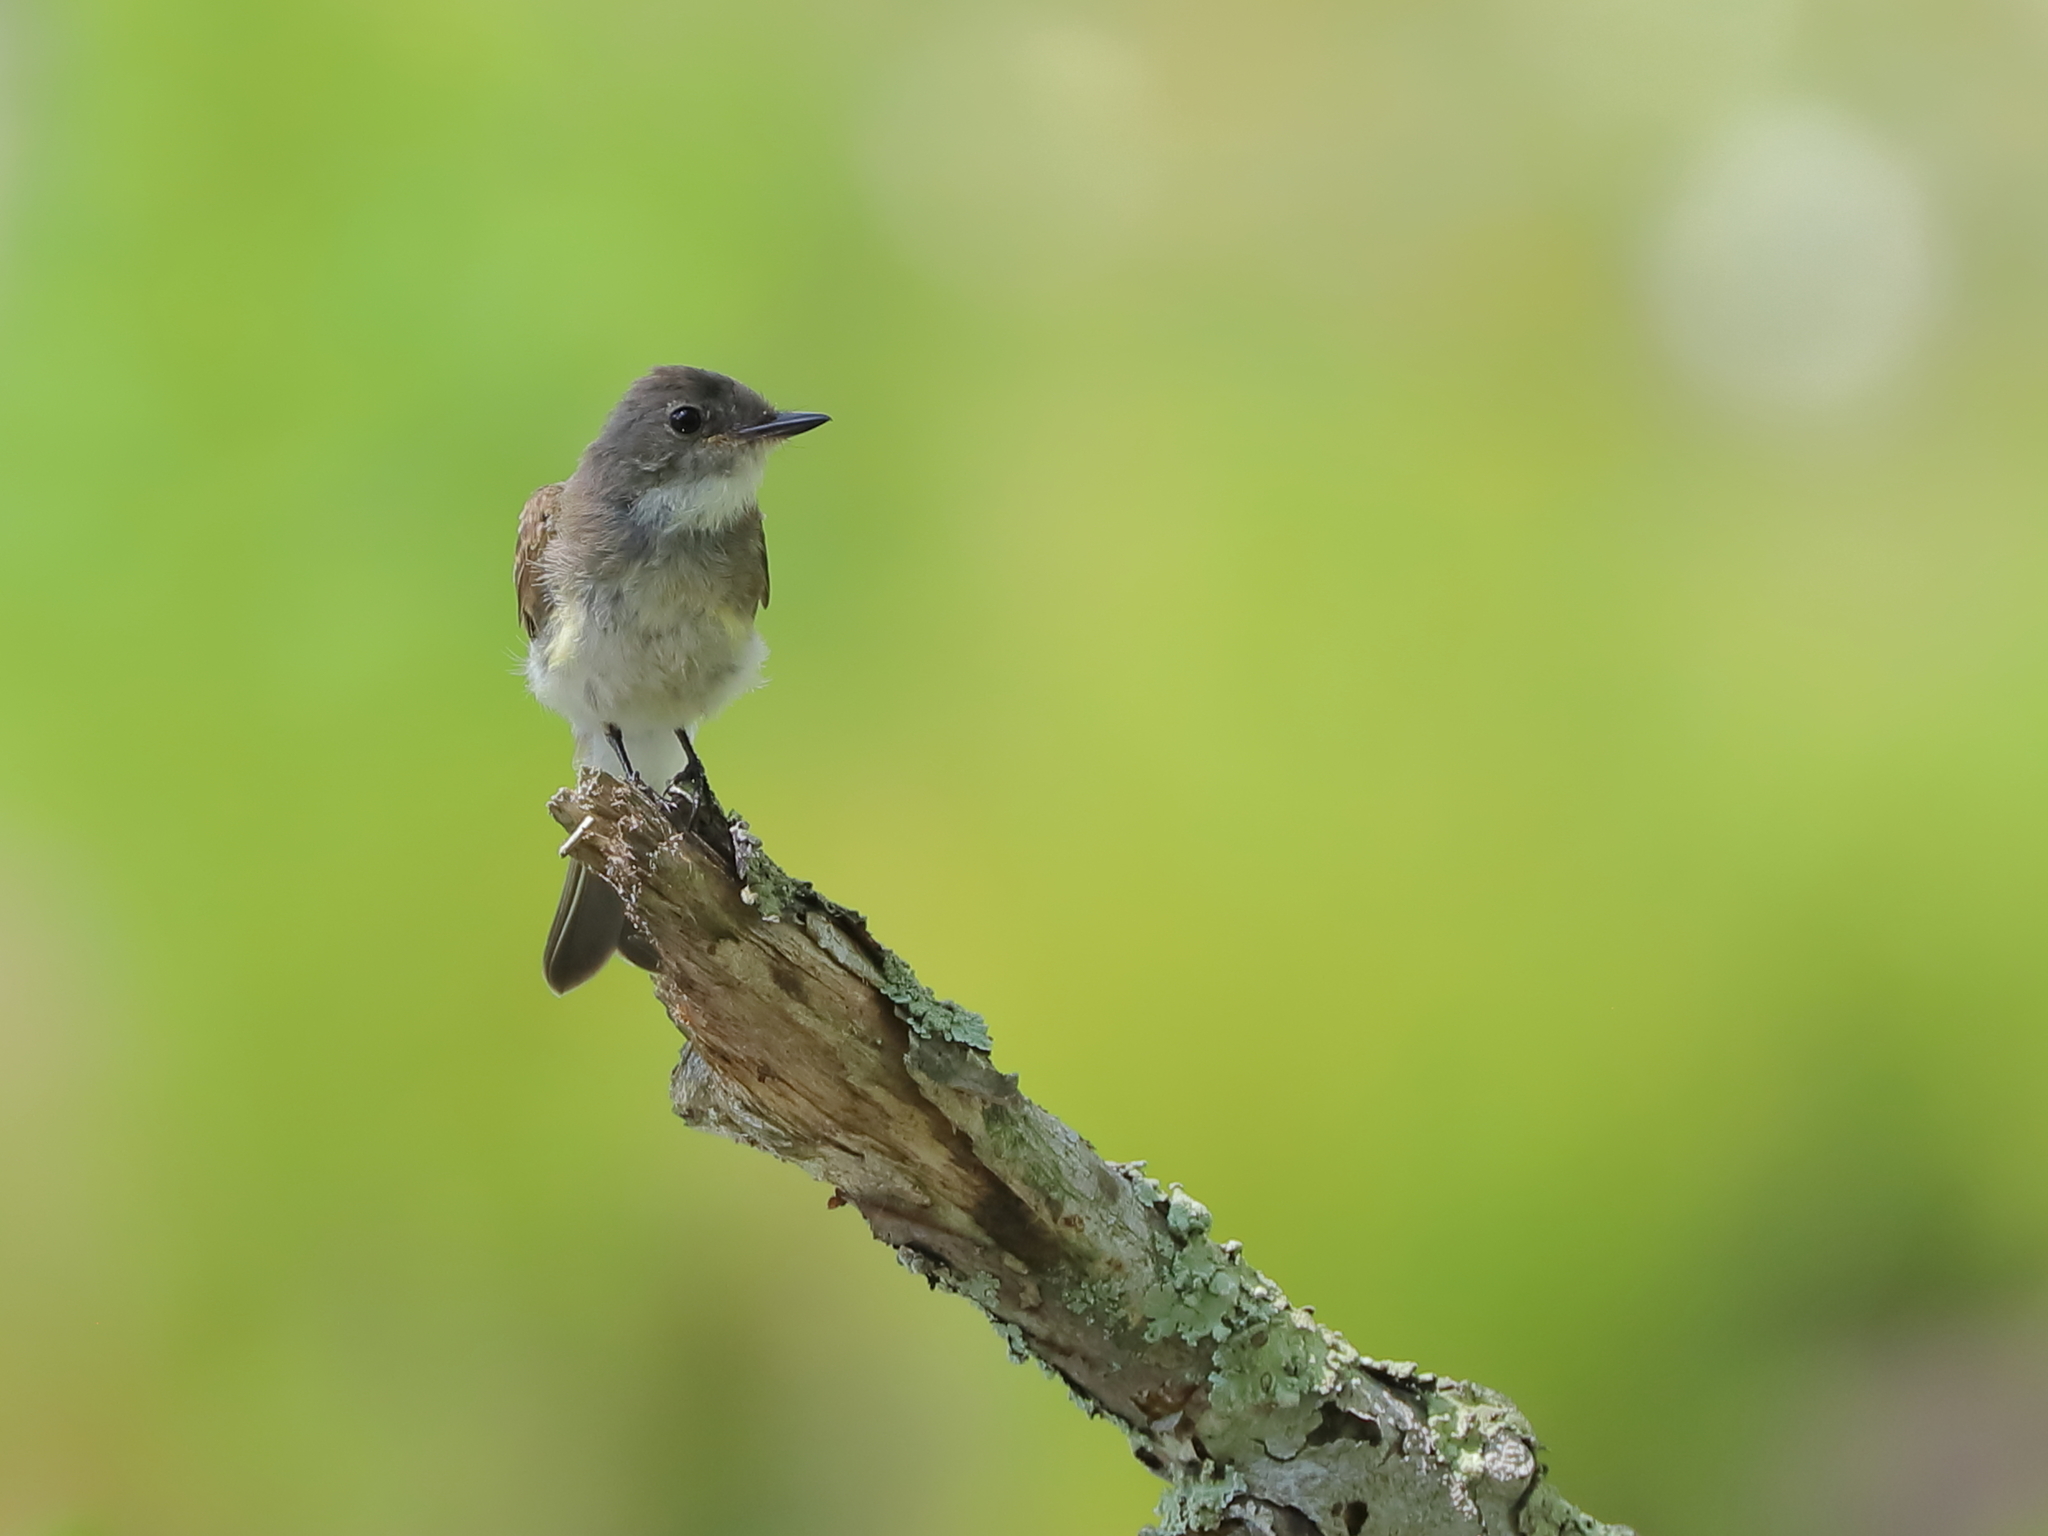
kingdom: Animalia
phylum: Chordata
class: Aves
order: Passeriformes
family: Tyrannidae
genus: Sayornis
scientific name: Sayornis phoebe
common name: Eastern phoebe
